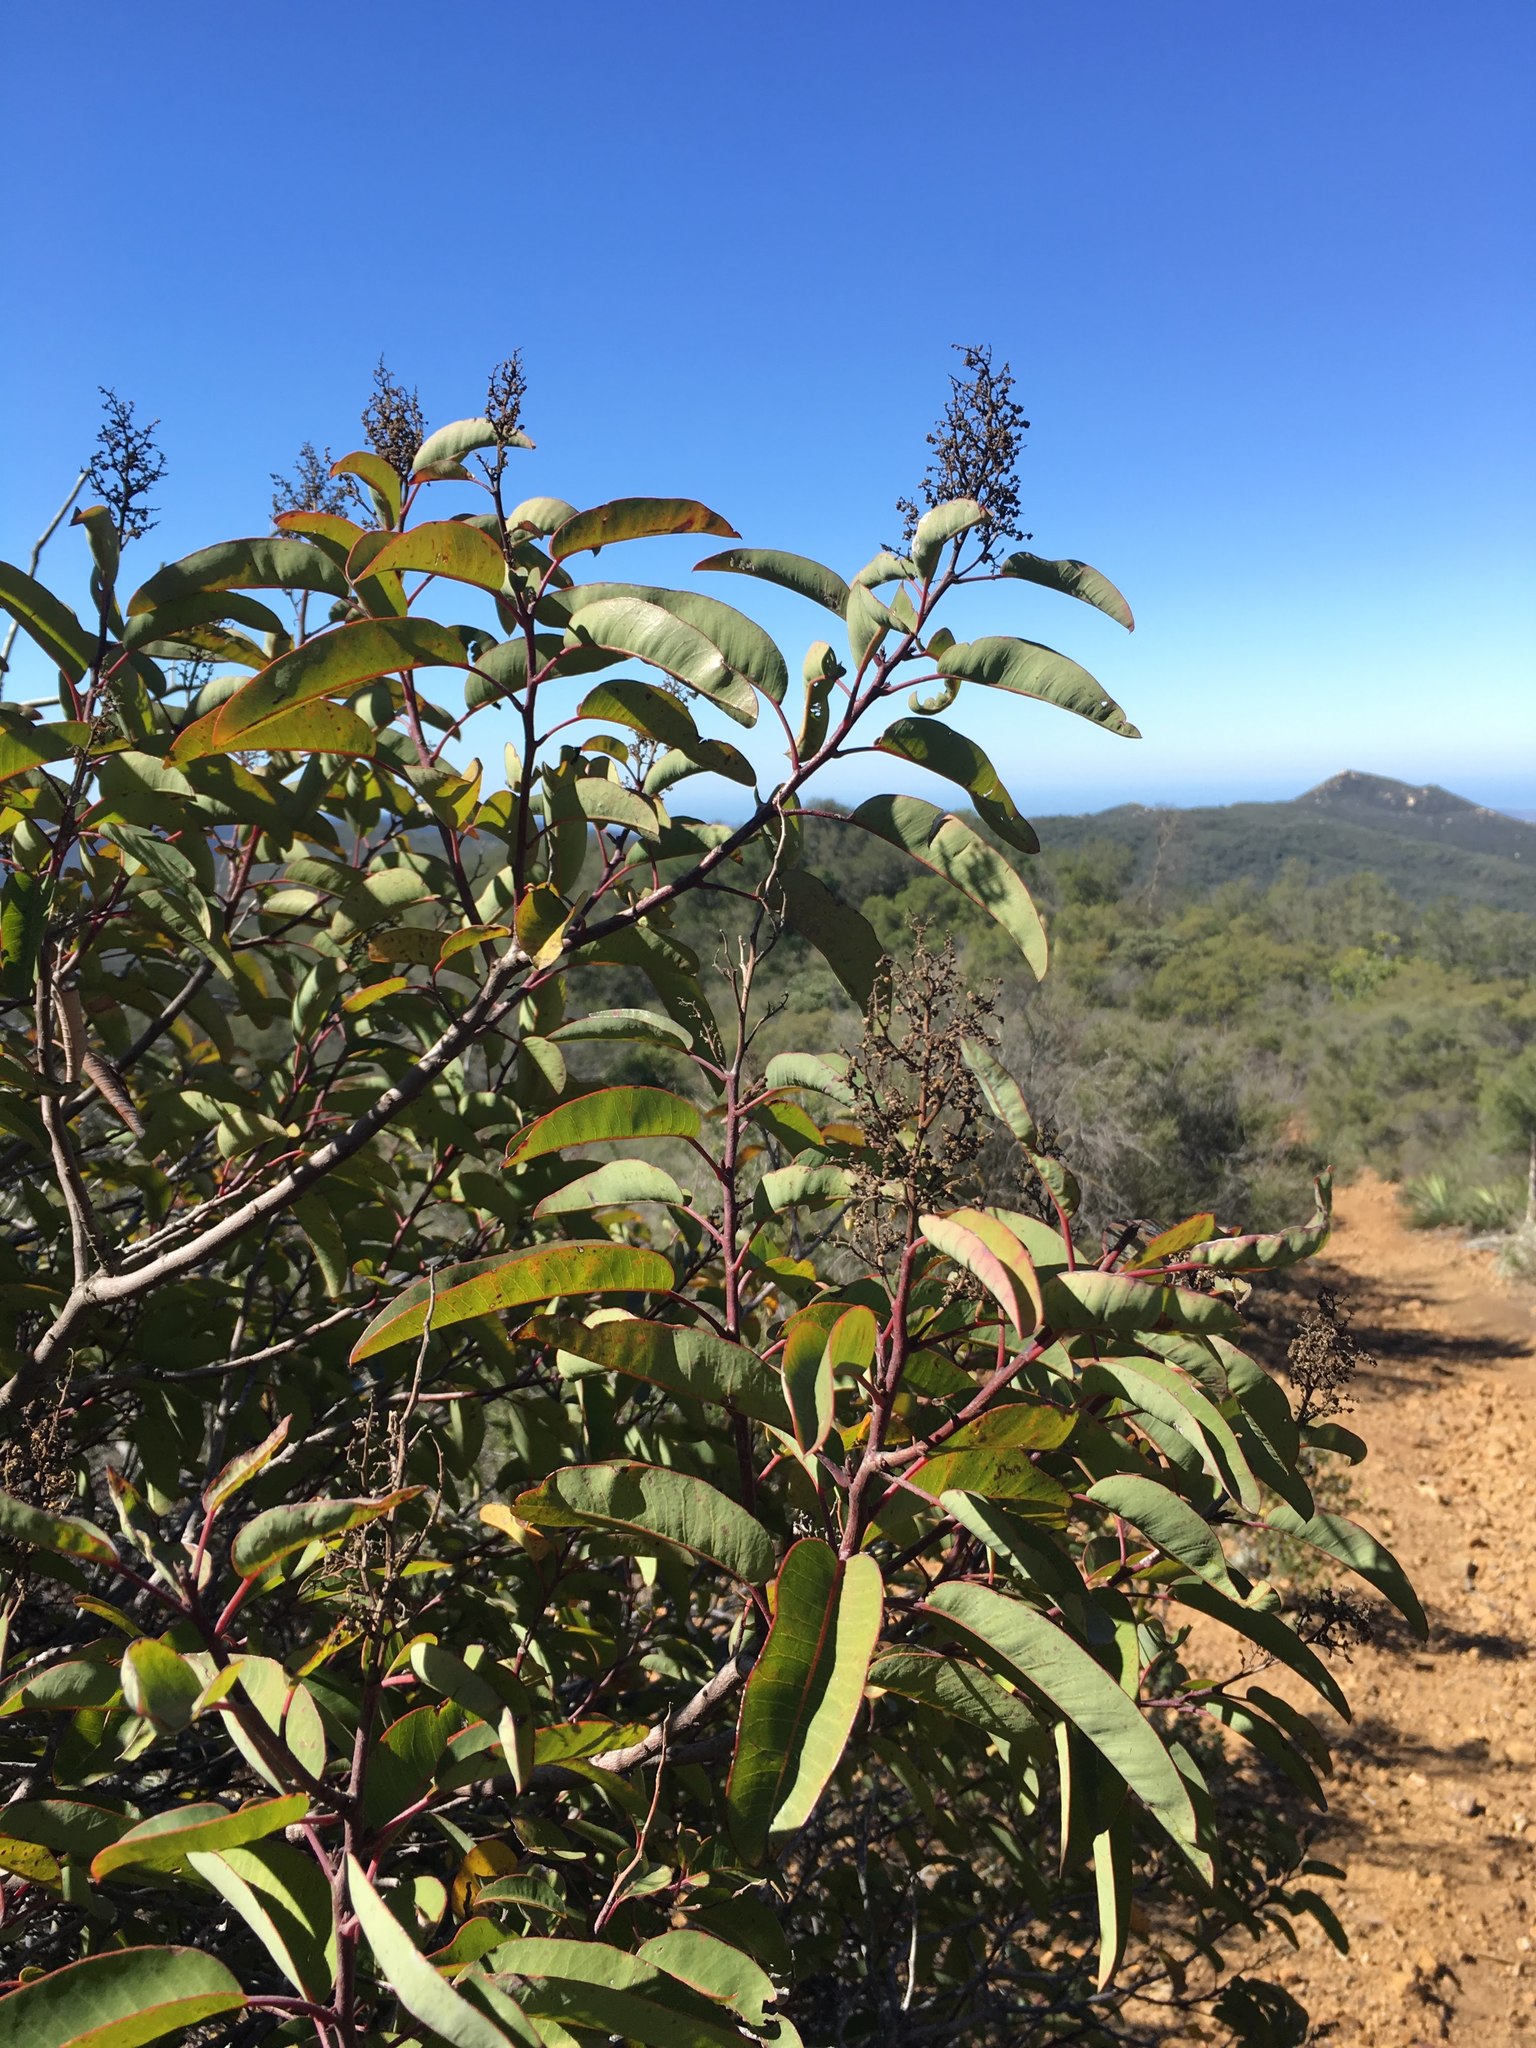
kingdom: Plantae
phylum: Tracheophyta
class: Magnoliopsida
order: Sapindales
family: Anacardiaceae
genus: Malosma
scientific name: Malosma laurina
